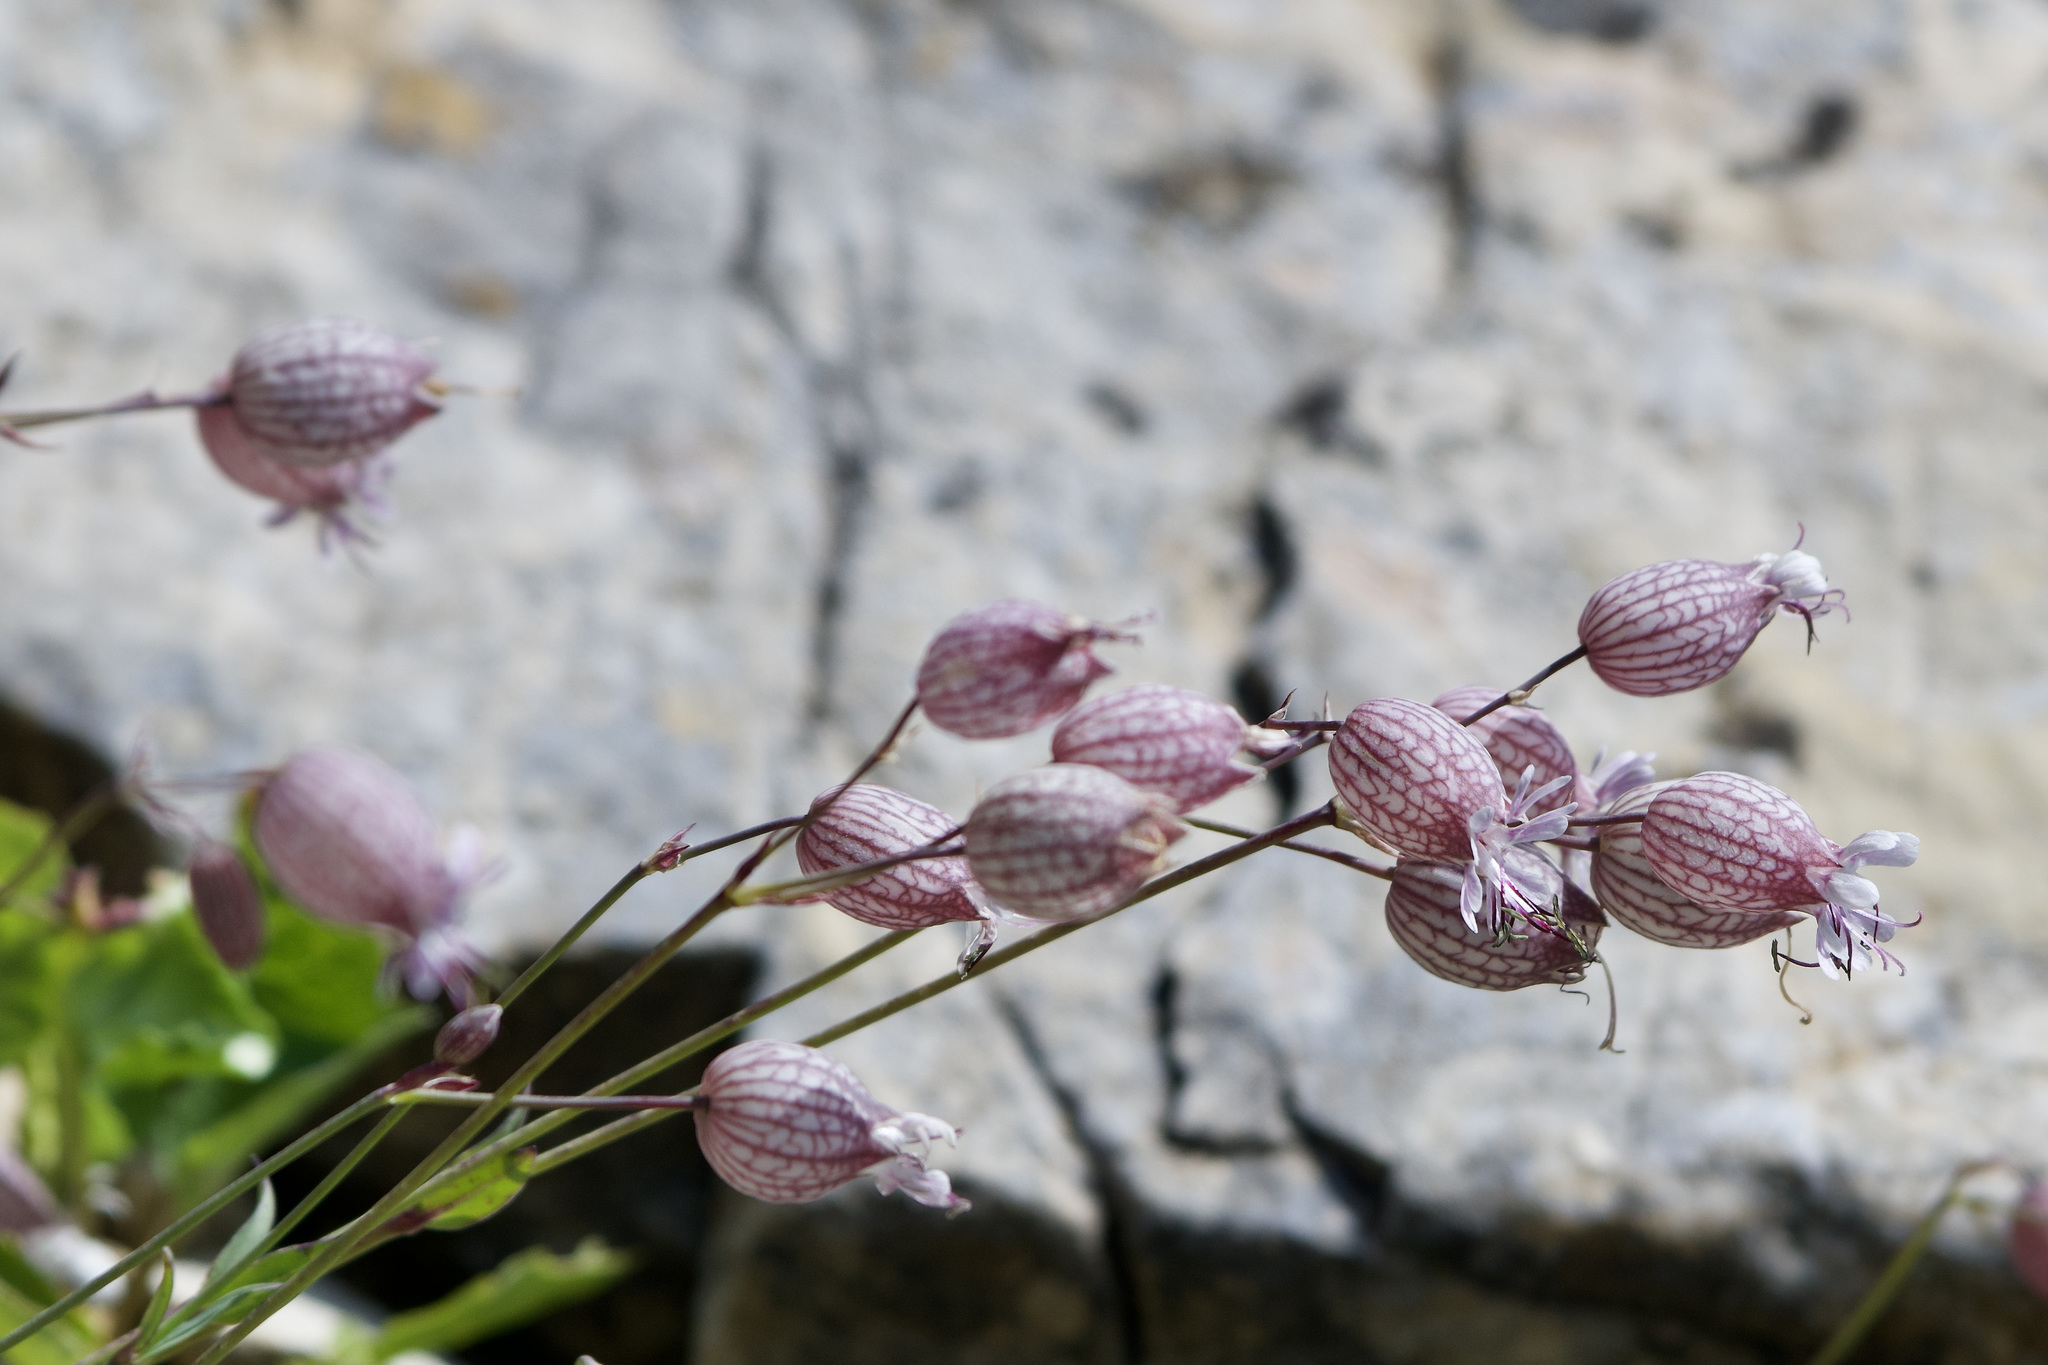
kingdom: Plantae
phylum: Tracheophyta
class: Magnoliopsida
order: Caryophyllales
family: Caryophyllaceae
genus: Silene
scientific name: Silene vulgaris
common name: Bladder campion
